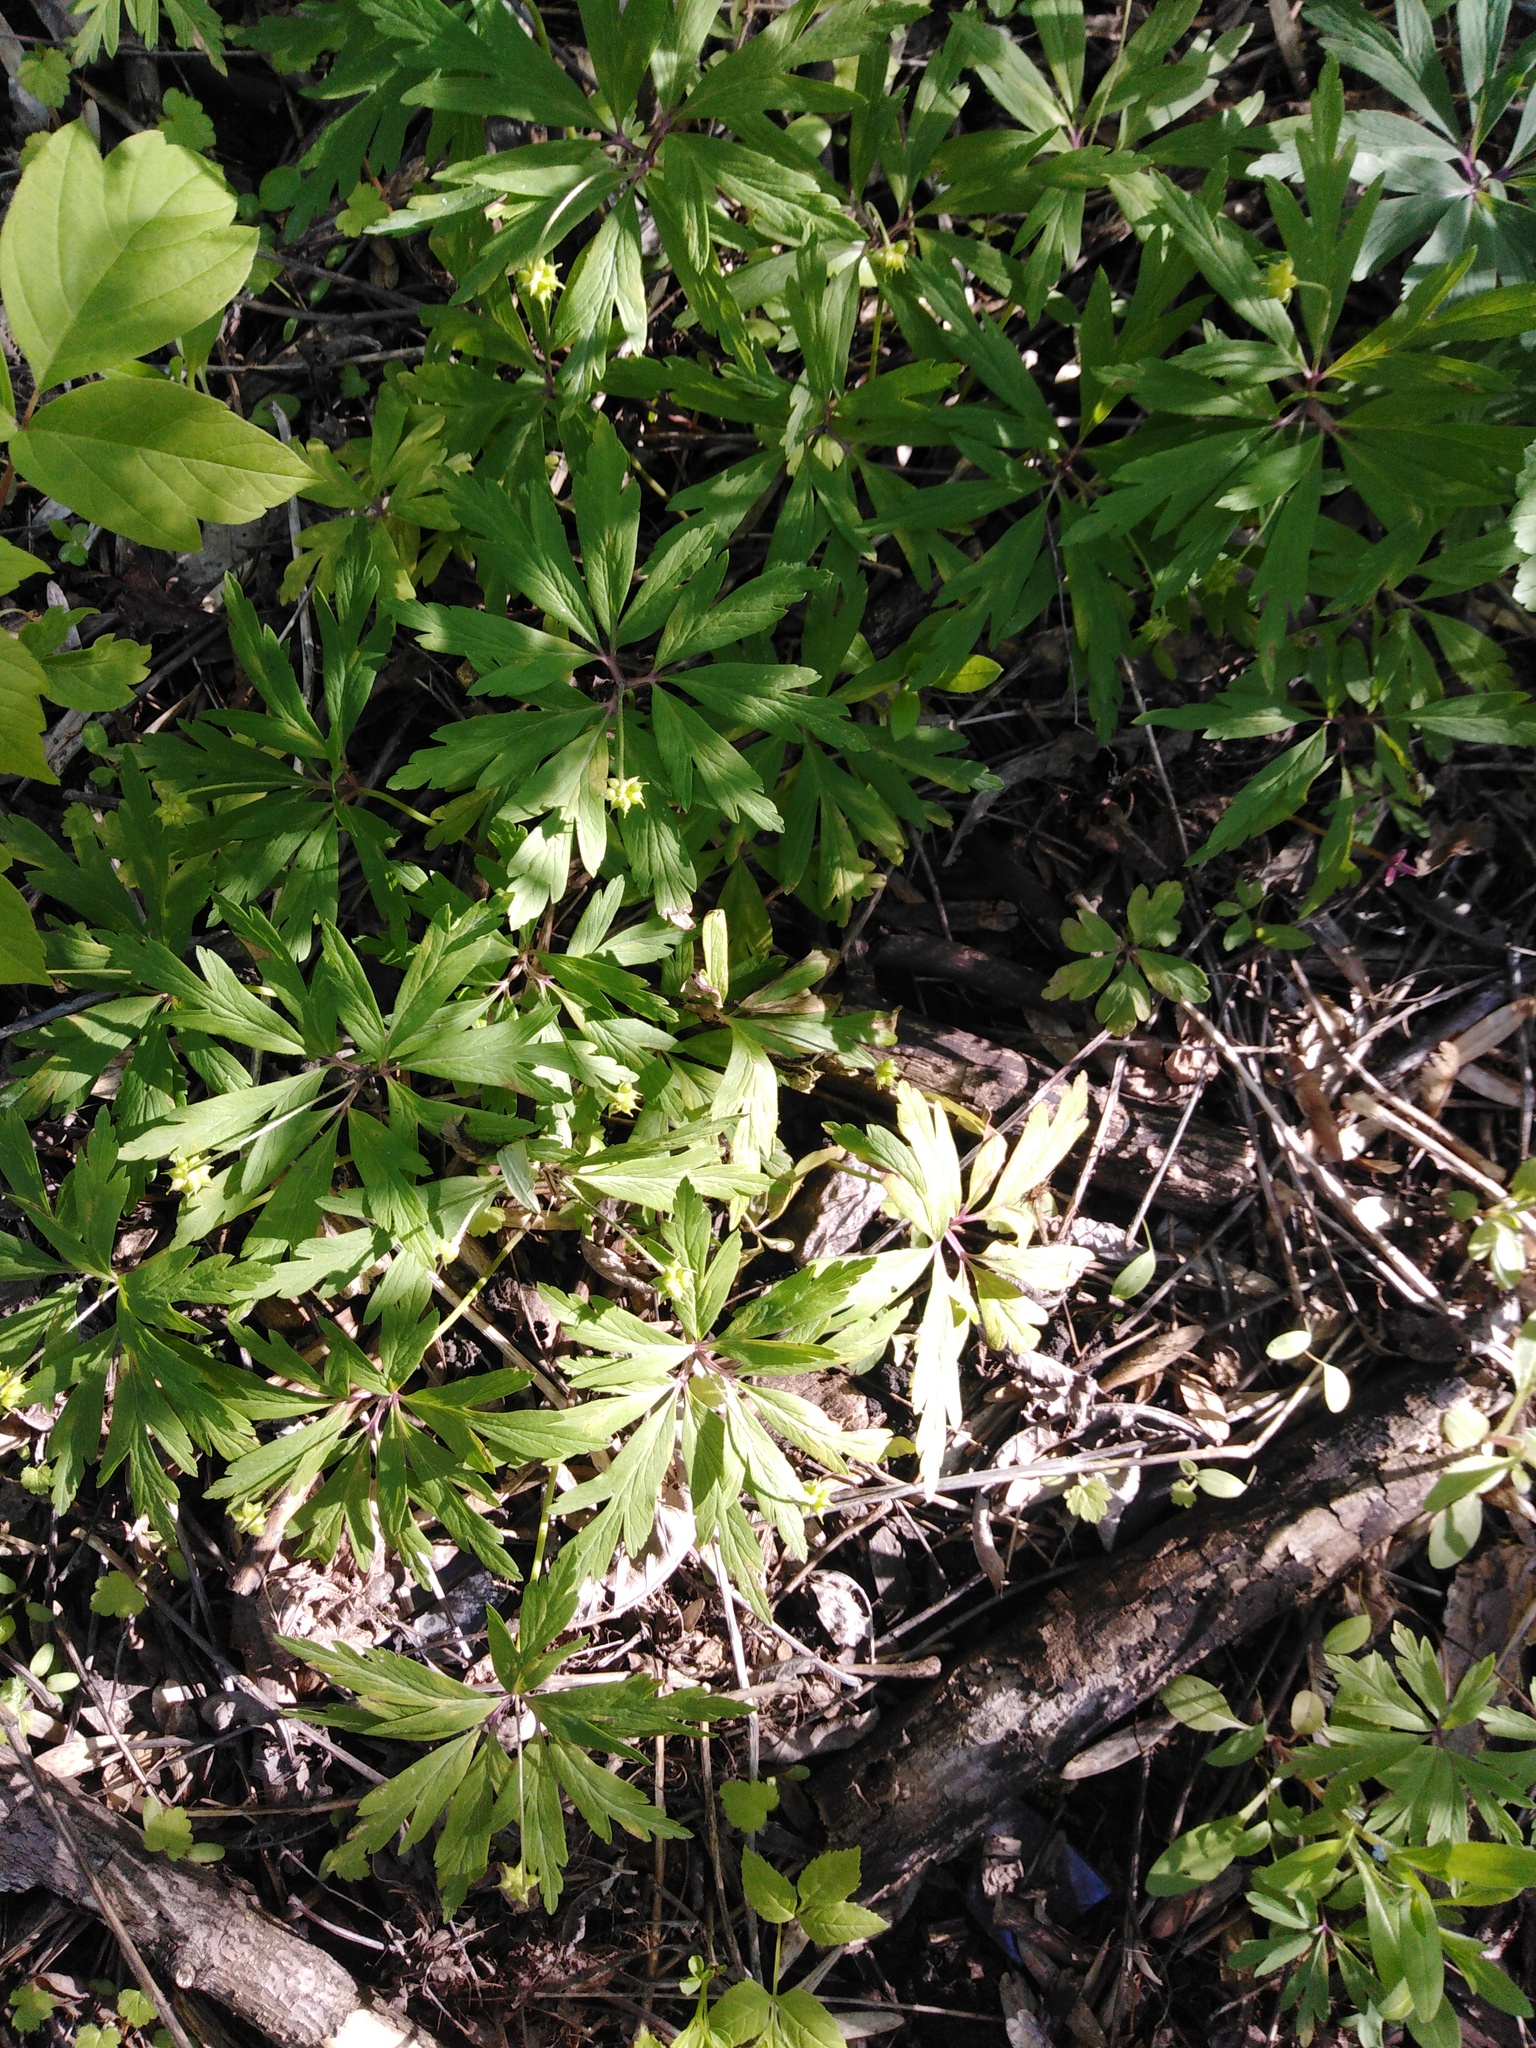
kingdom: Plantae
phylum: Tracheophyta
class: Magnoliopsida
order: Ranunculales
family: Ranunculaceae
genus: Anemone
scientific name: Anemone ranunculoides
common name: Yellow anemone
